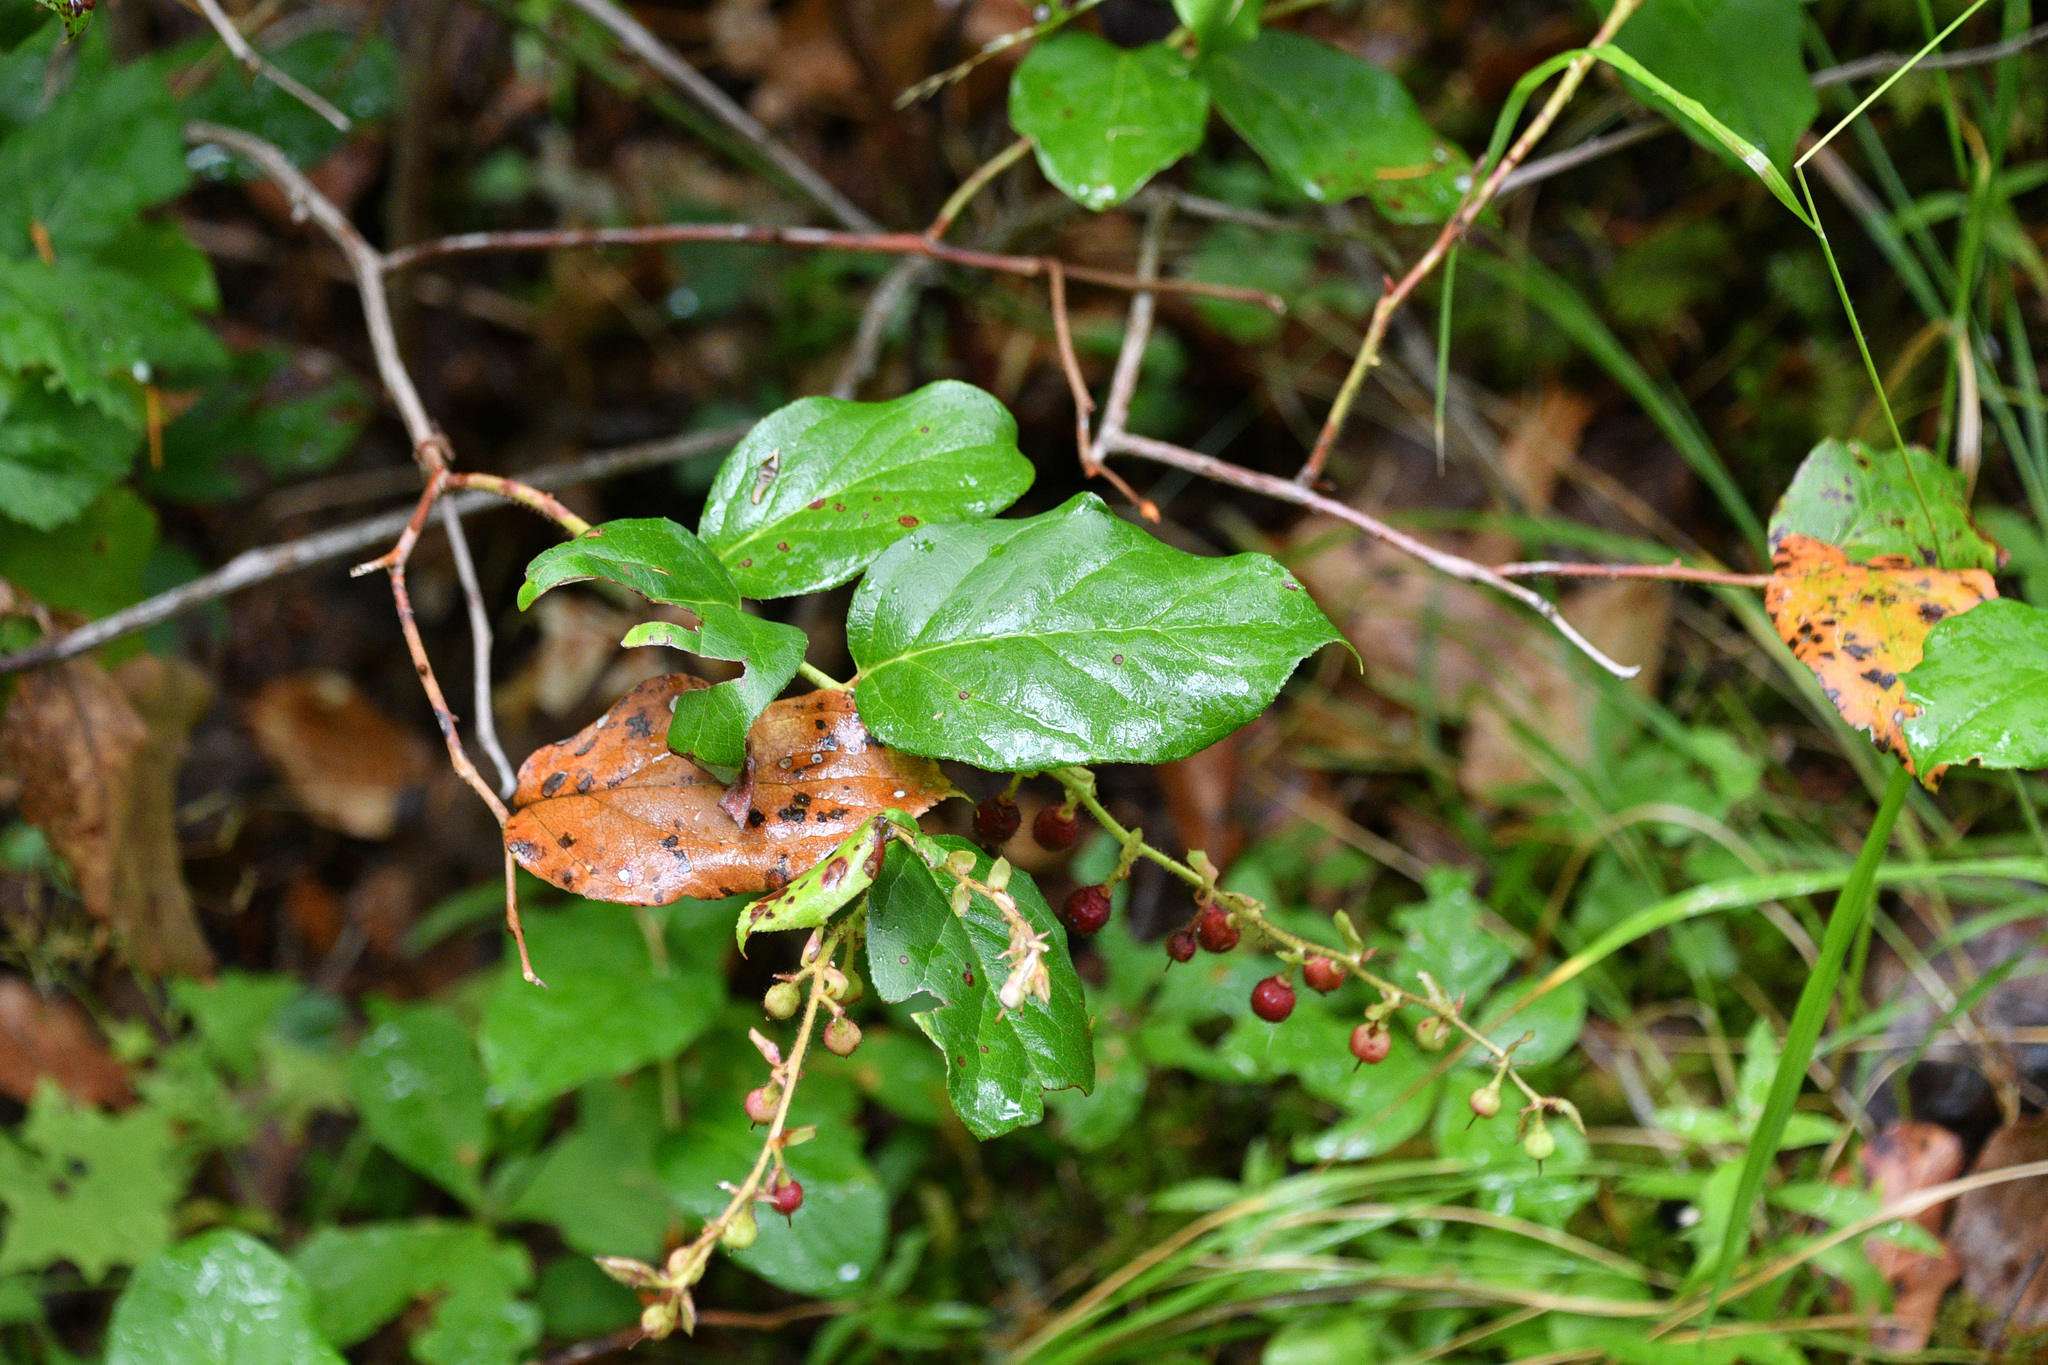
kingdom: Plantae
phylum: Tracheophyta
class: Magnoliopsida
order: Ericales
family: Ericaceae
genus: Gaultheria
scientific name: Gaultheria shallon
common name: Shallon
